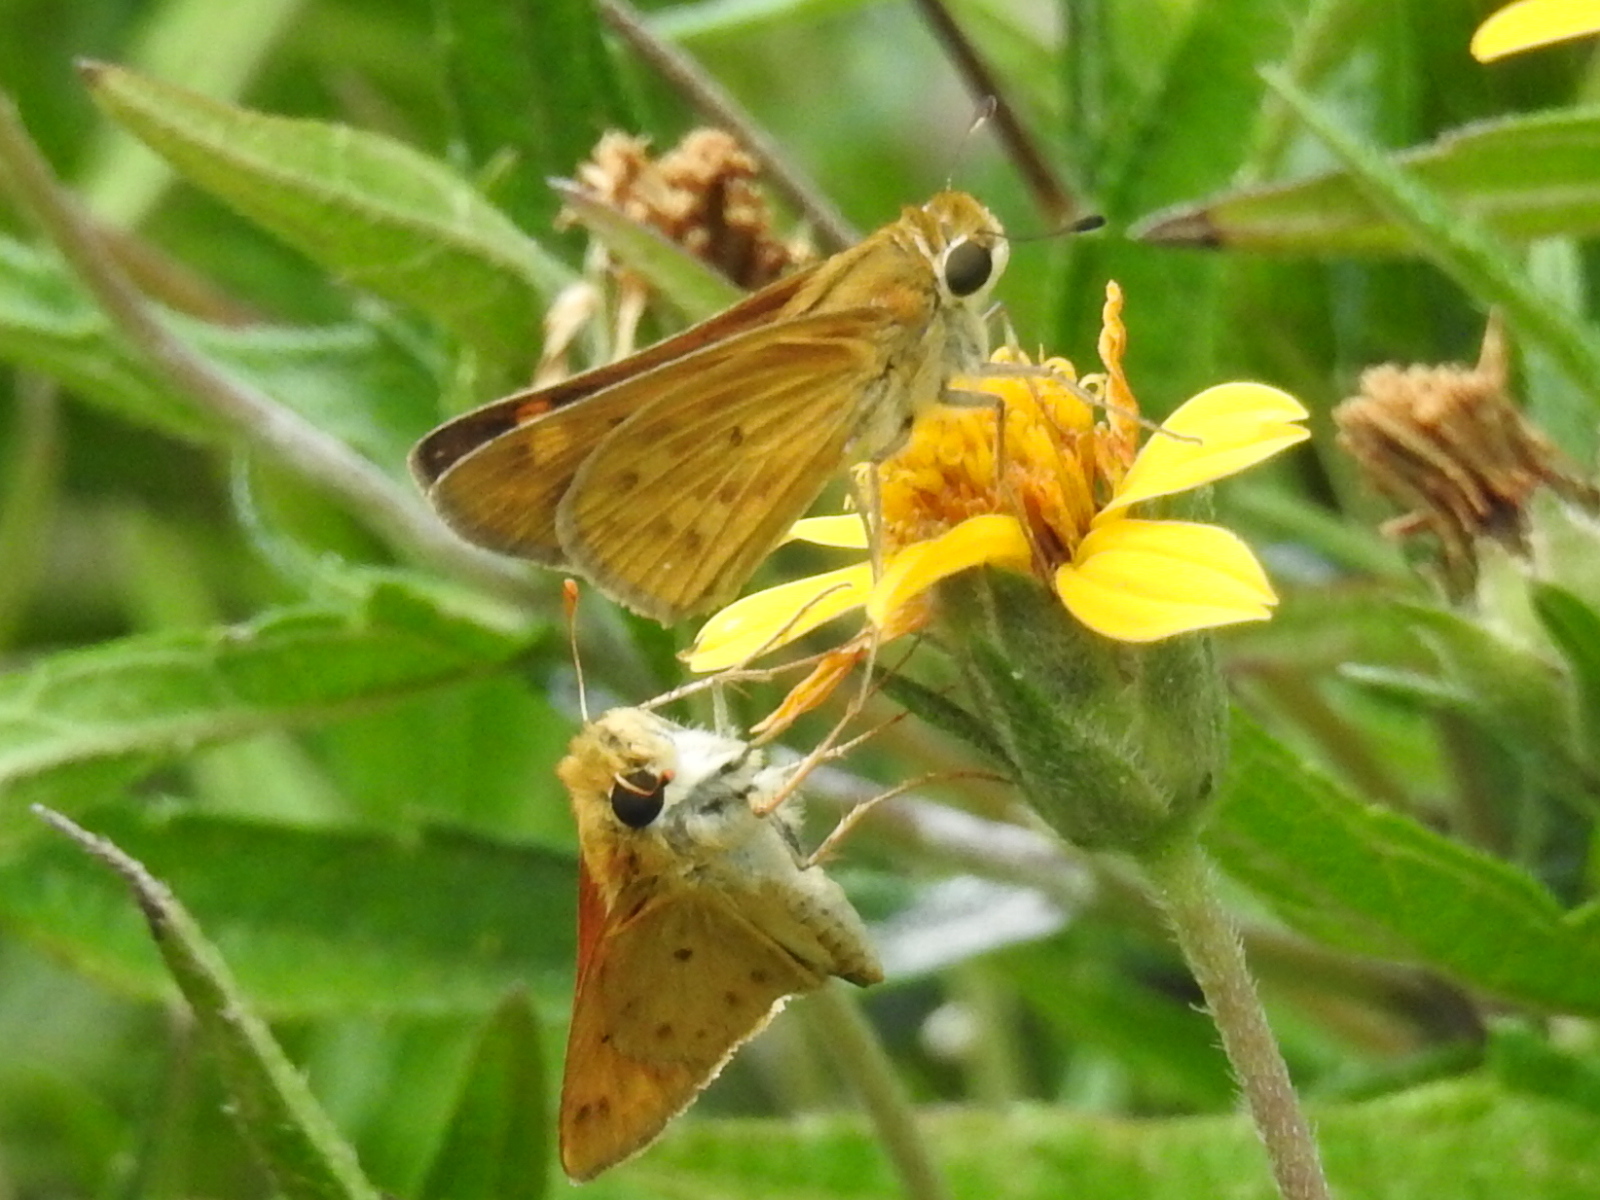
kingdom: Animalia
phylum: Arthropoda
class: Insecta
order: Lepidoptera
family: Hesperiidae
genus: Hylephila
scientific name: Hylephila phyleus
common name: Fiery skipper
